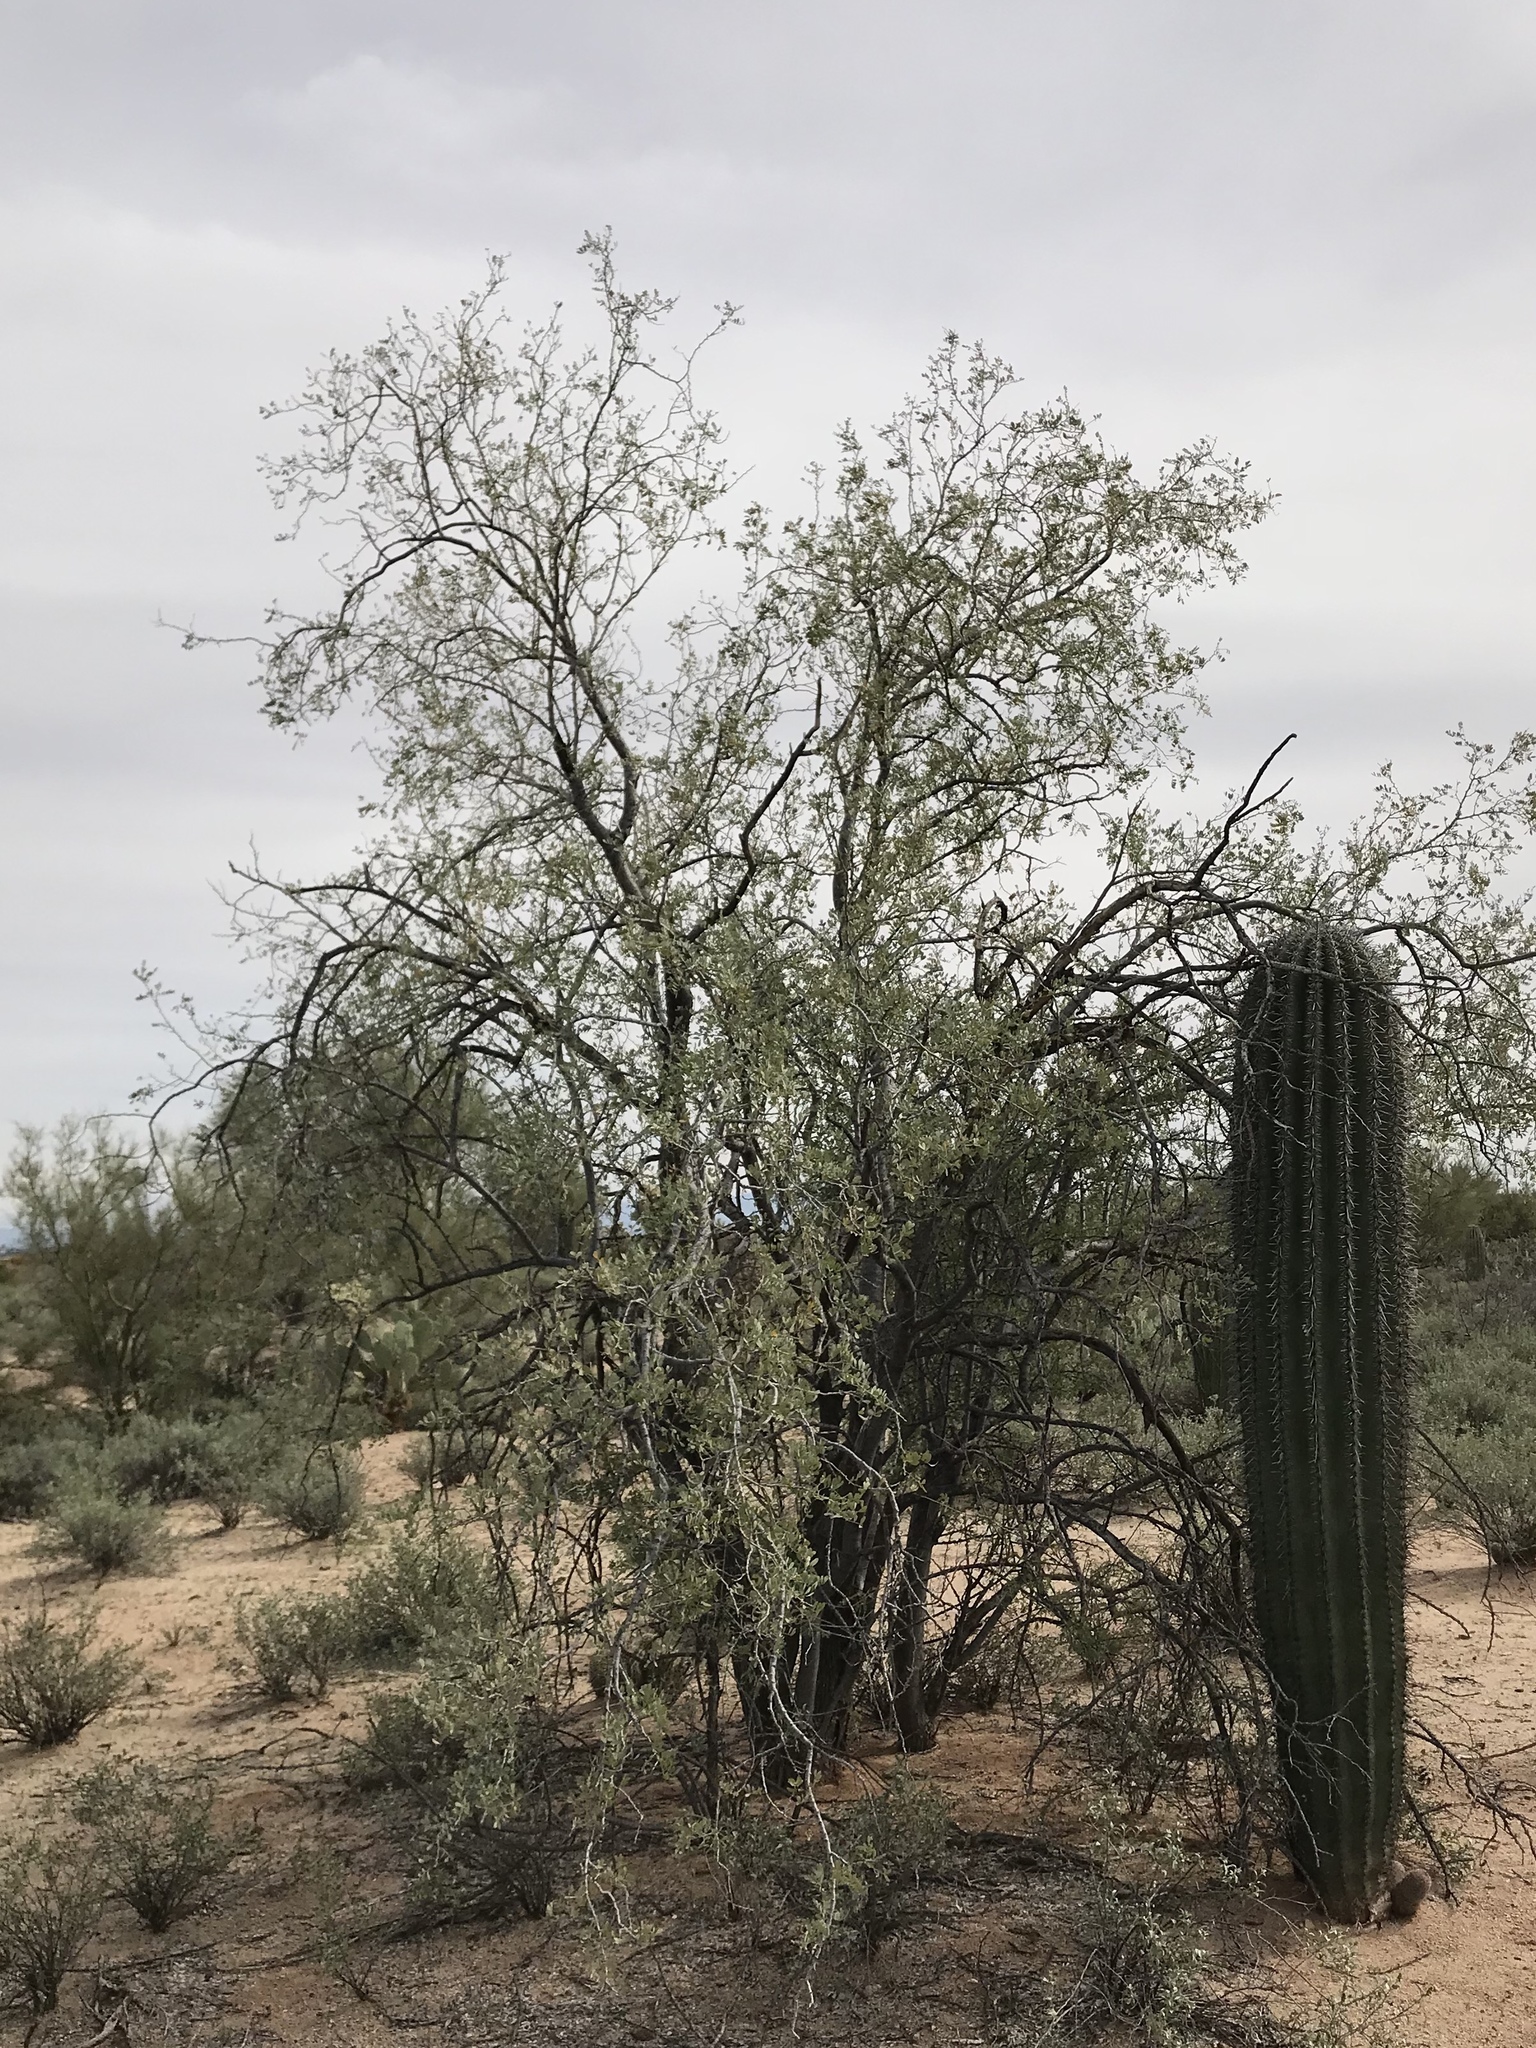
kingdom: Plantae
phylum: Tracheophyta
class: Magnoliopsida
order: Fabales
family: Fabaceae
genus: Olneya
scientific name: Olneya tesota
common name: Desert ironwood
